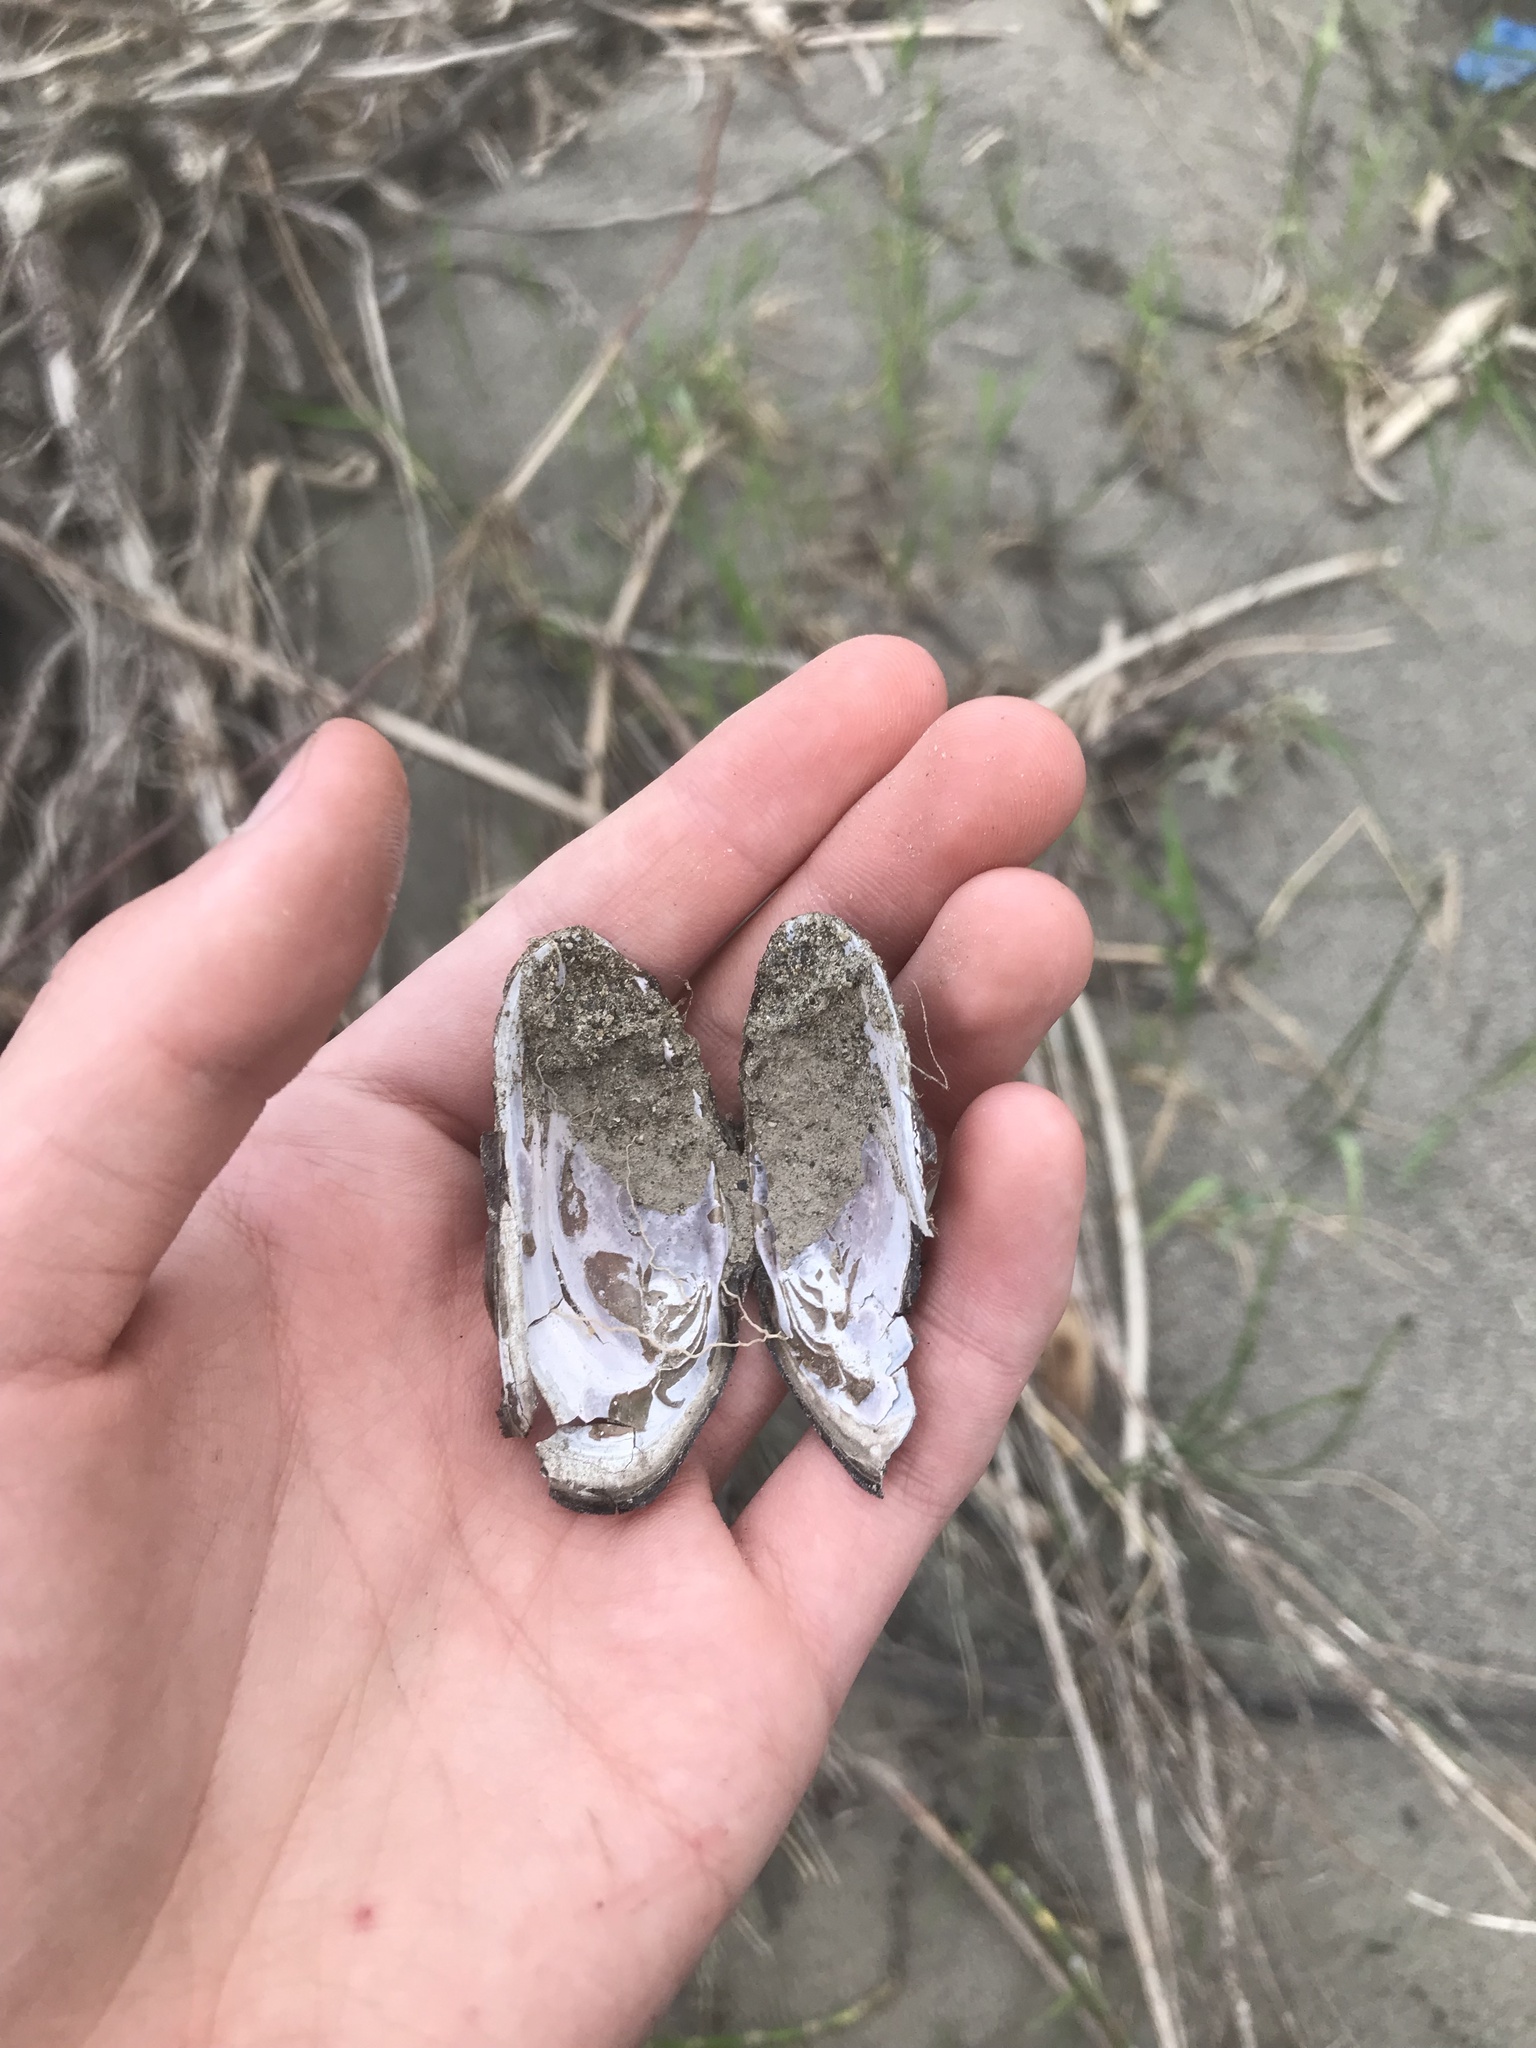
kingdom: Animalia
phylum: Mollusca
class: Bivalvia
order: Unionida
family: Margaritiferidae
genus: Margaritifera
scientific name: Margaritifera falcata
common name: Western pearlshell
